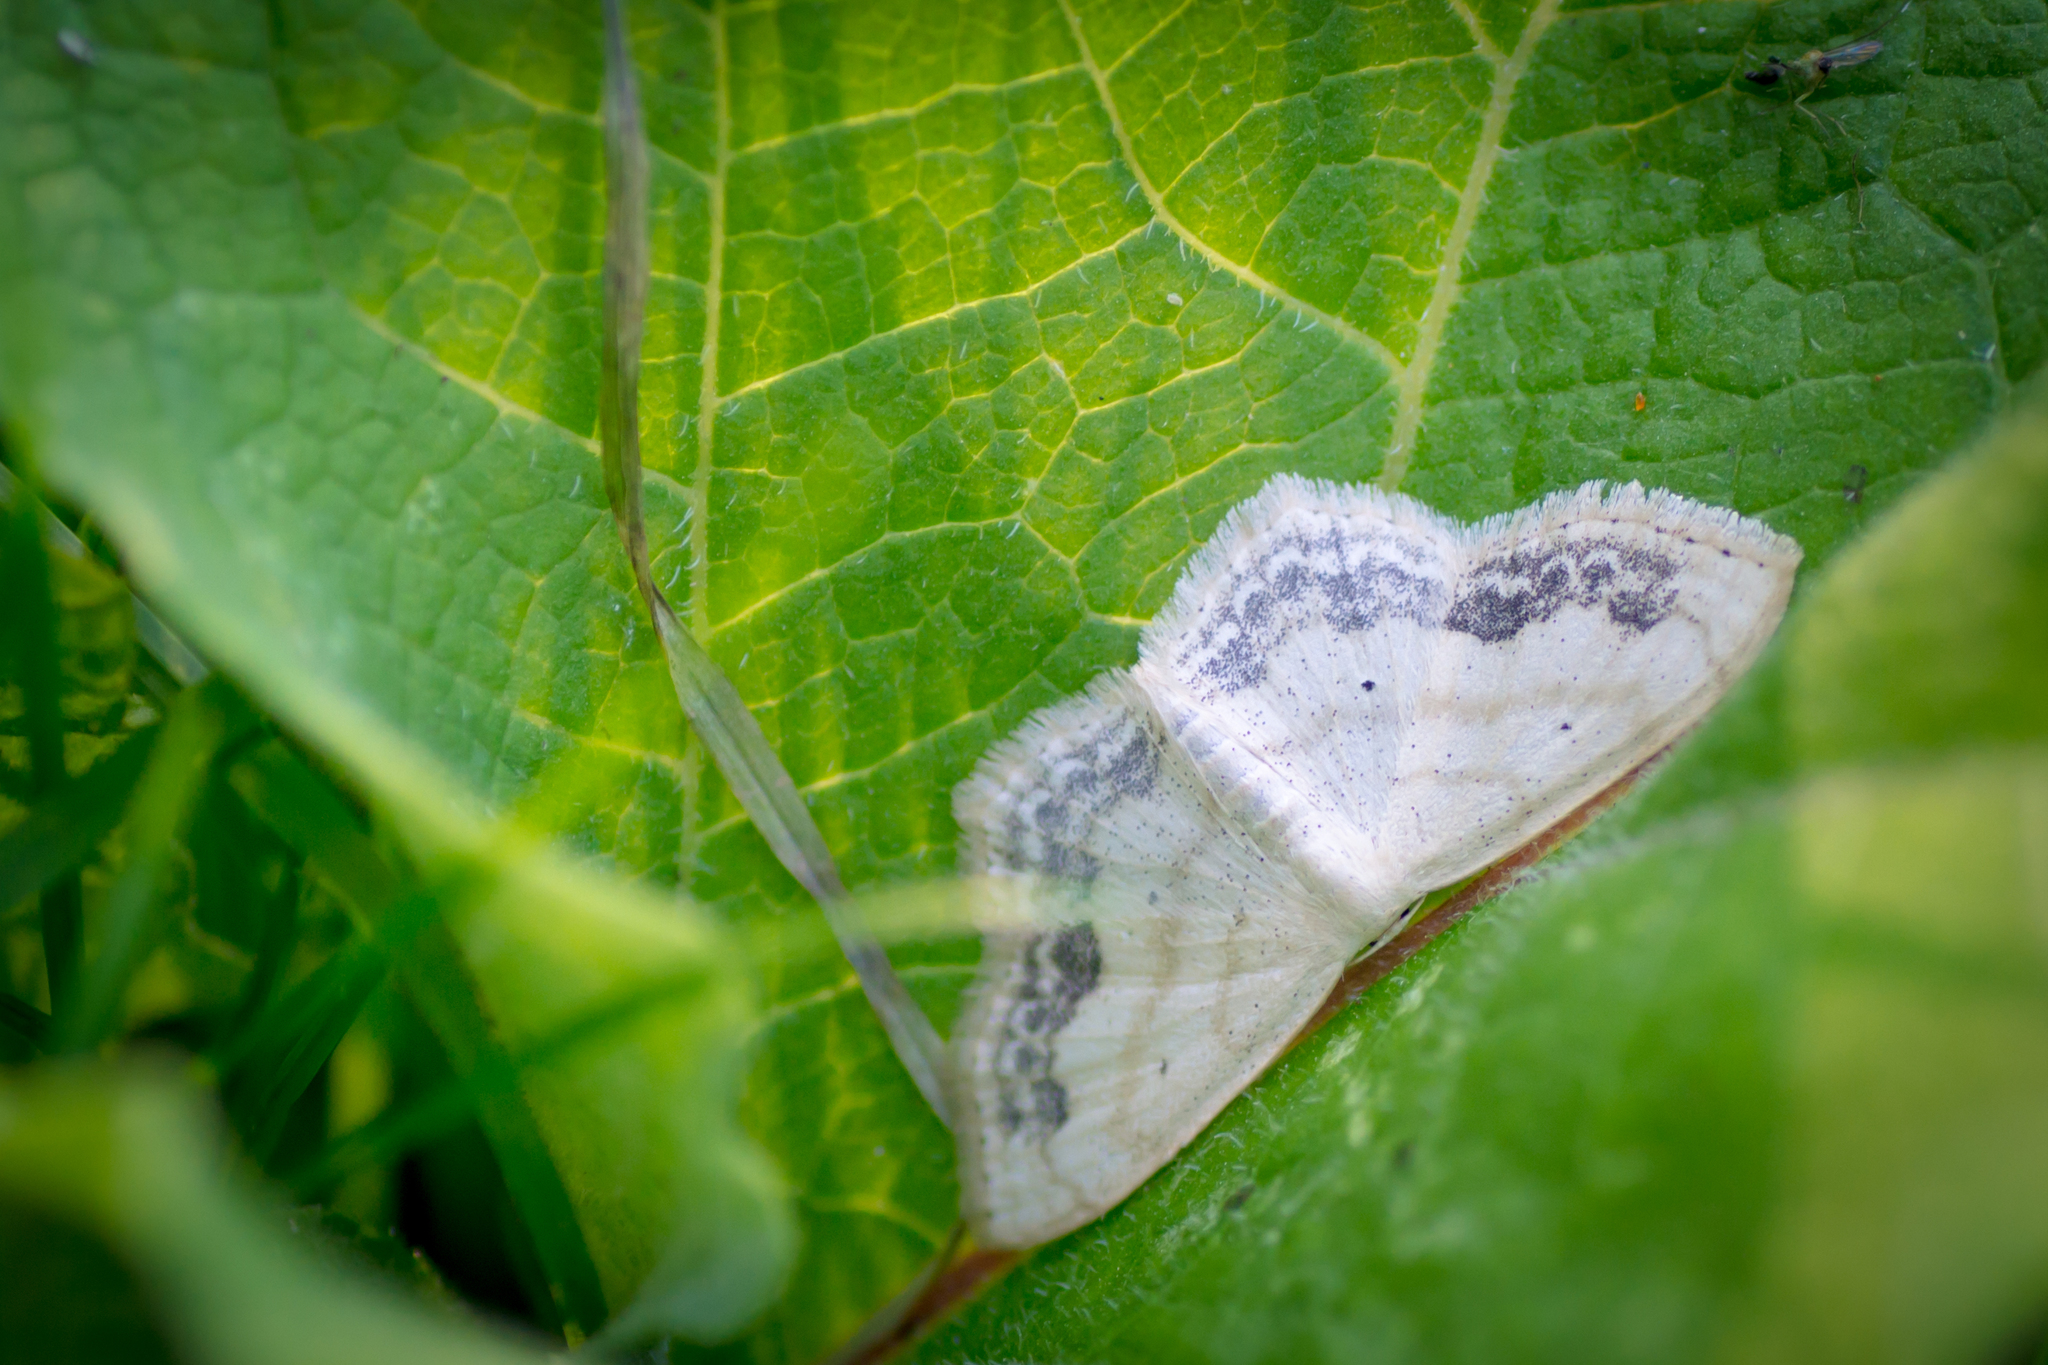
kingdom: Animalia
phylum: Arthropoda
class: Insecta
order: Lepidoptera
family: Geometridae
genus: Scopula
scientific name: Scopula limboundata
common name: Large lace border
